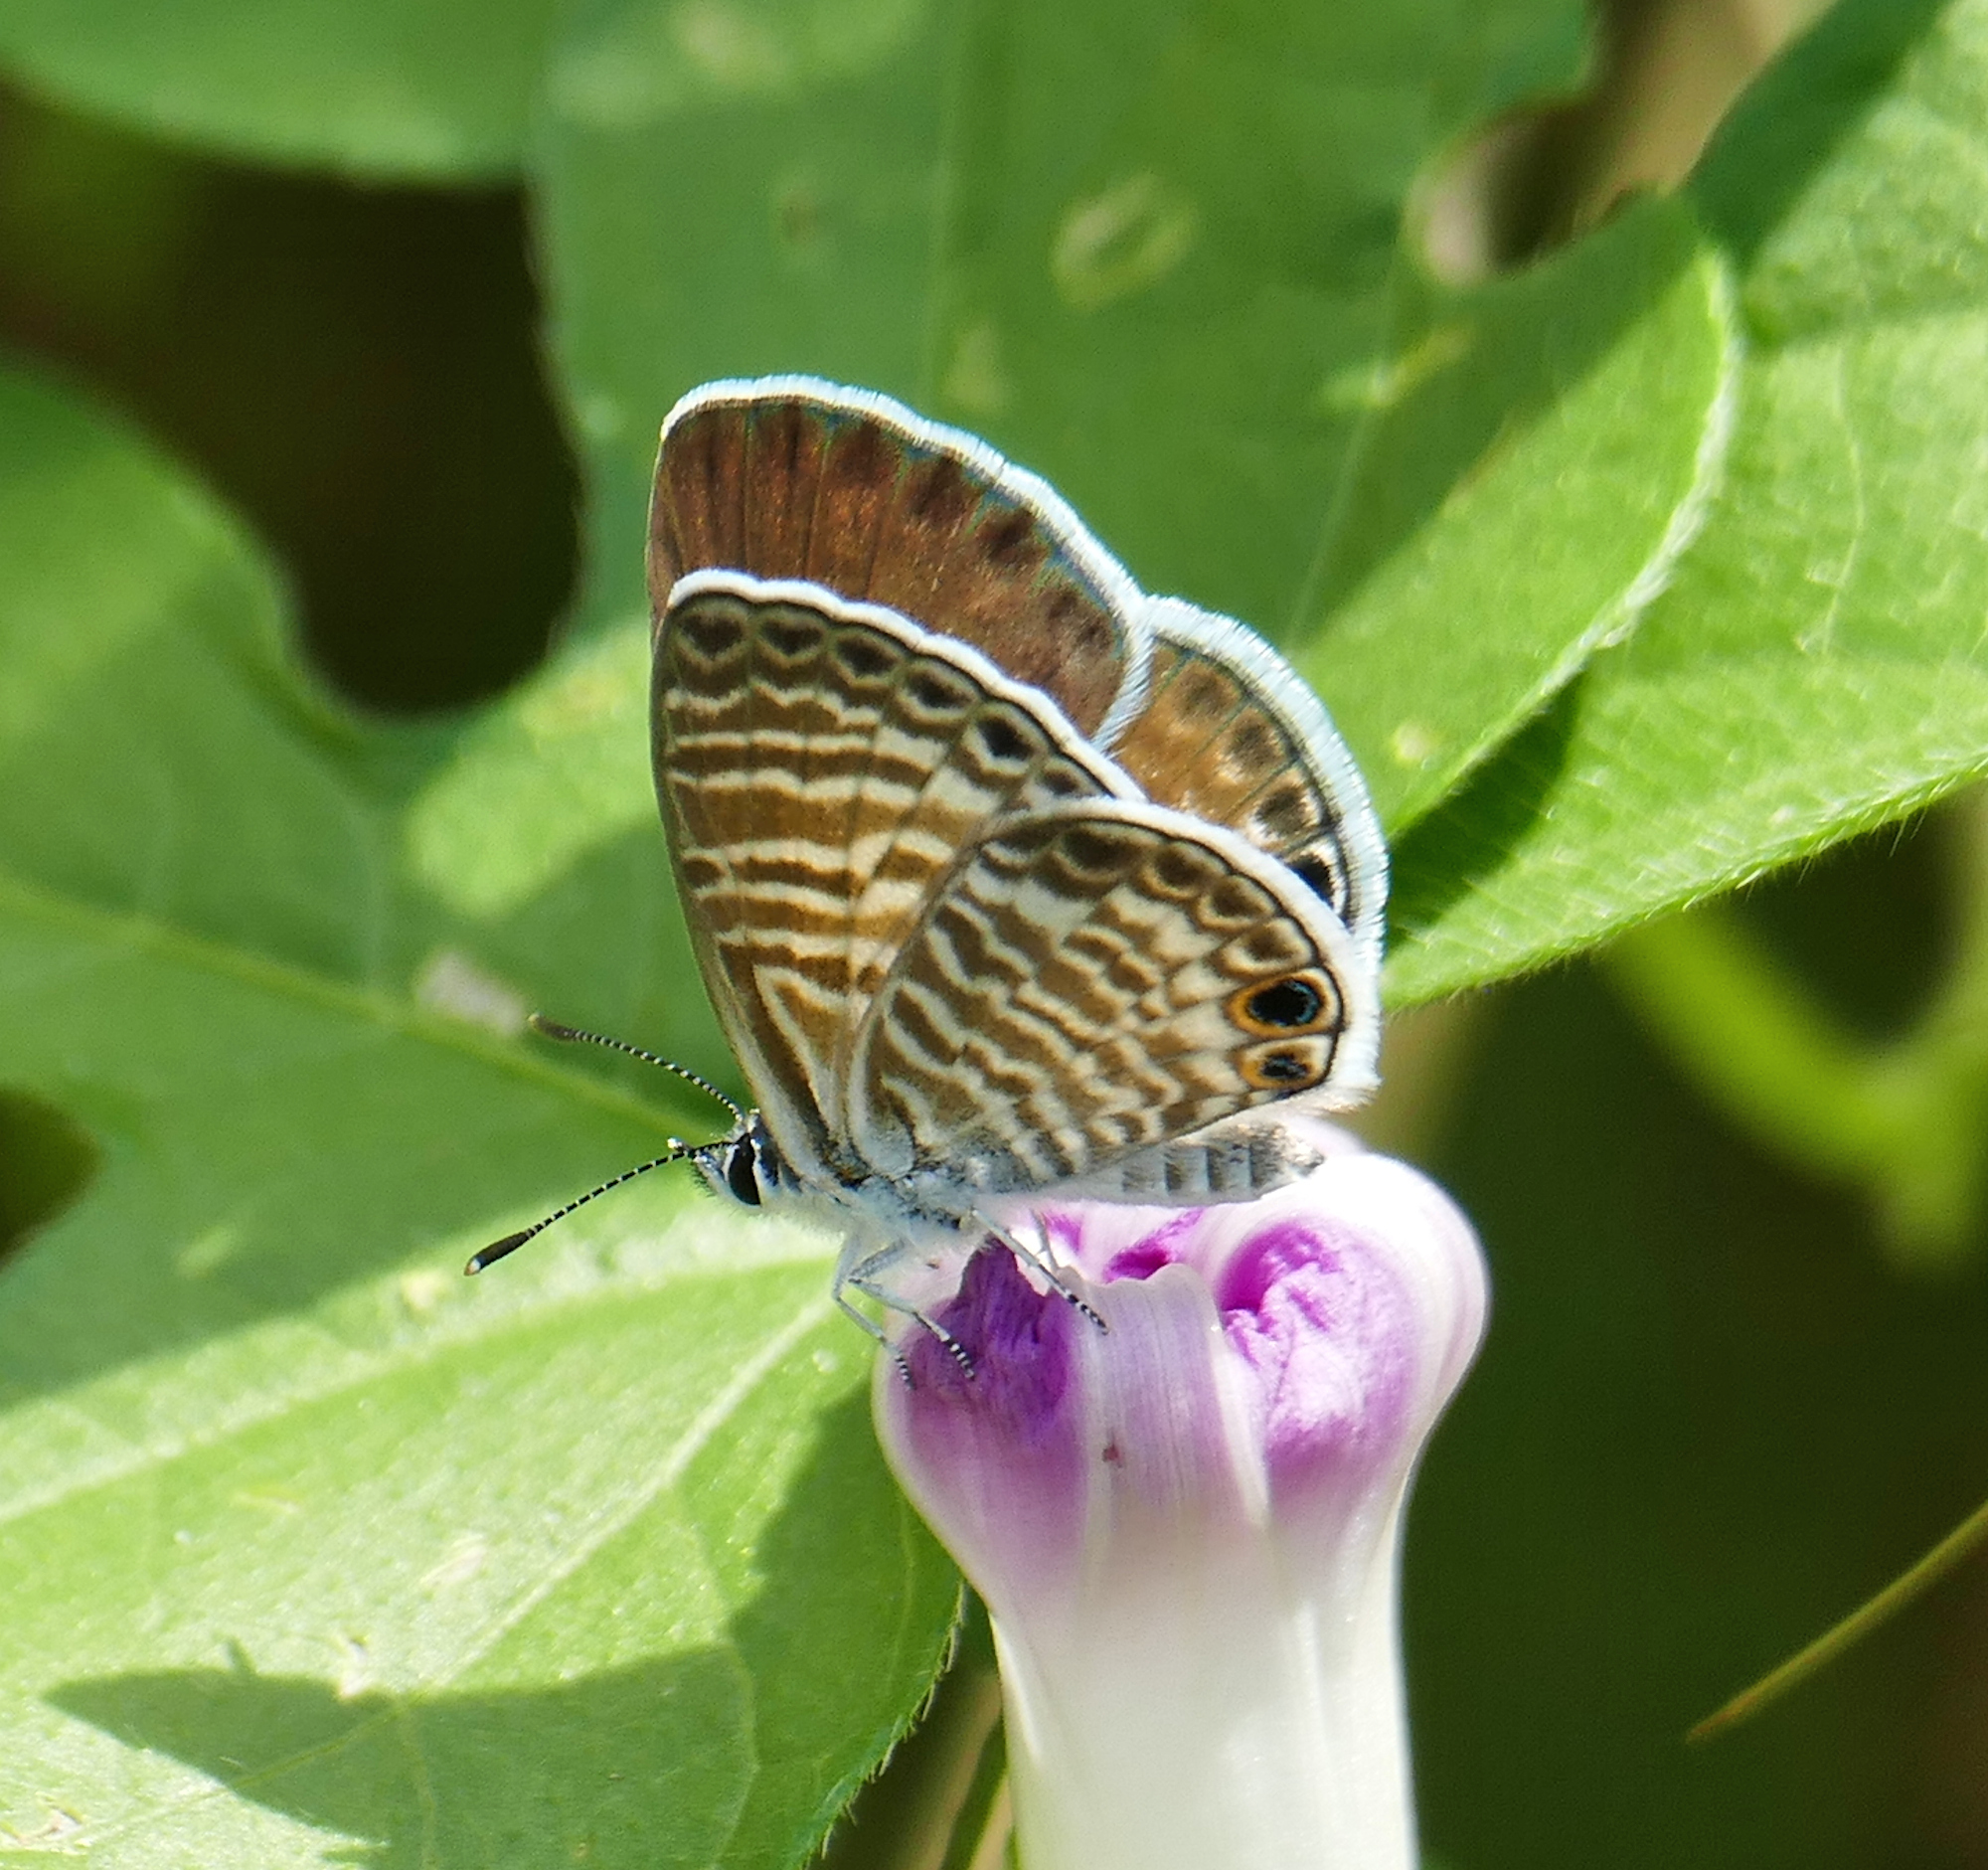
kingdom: Animalia
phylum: Arthropoda
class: Insecta
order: Lepidoptera
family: Lycaenidae
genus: Leptotes
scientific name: Leptotes marina
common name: Marine blue
